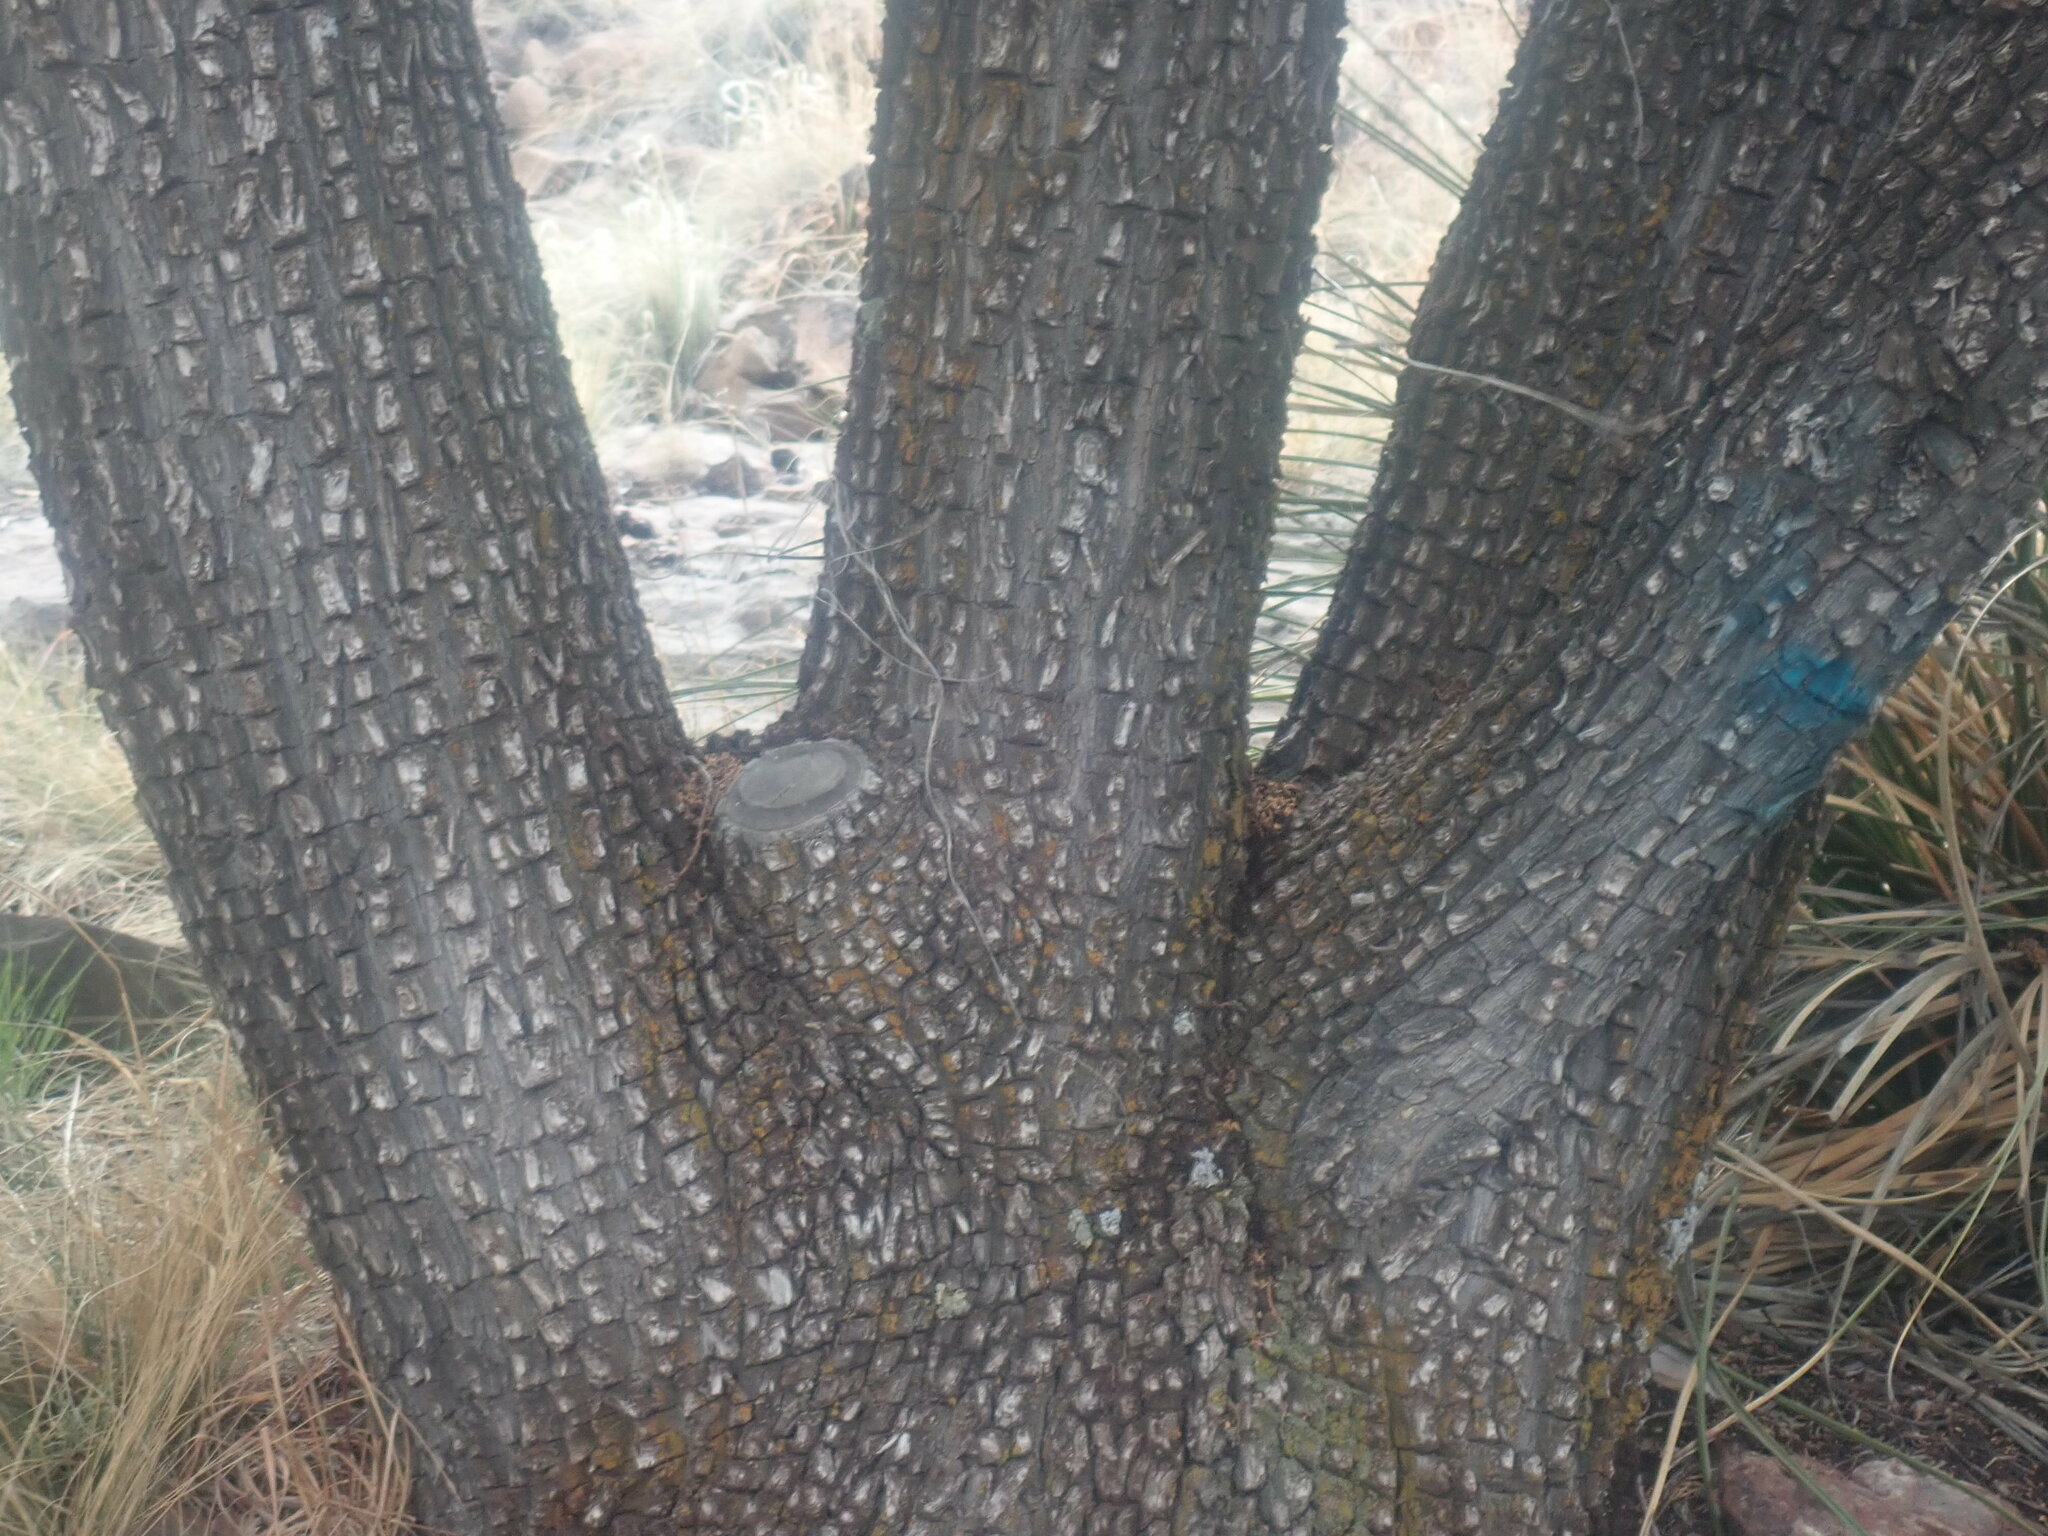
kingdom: Plantae
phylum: Tracheophyta
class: Pinopsida
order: Pinales
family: Cupressaceae
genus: Juniperus
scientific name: Juniperus deppeana
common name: Alligator juniper
